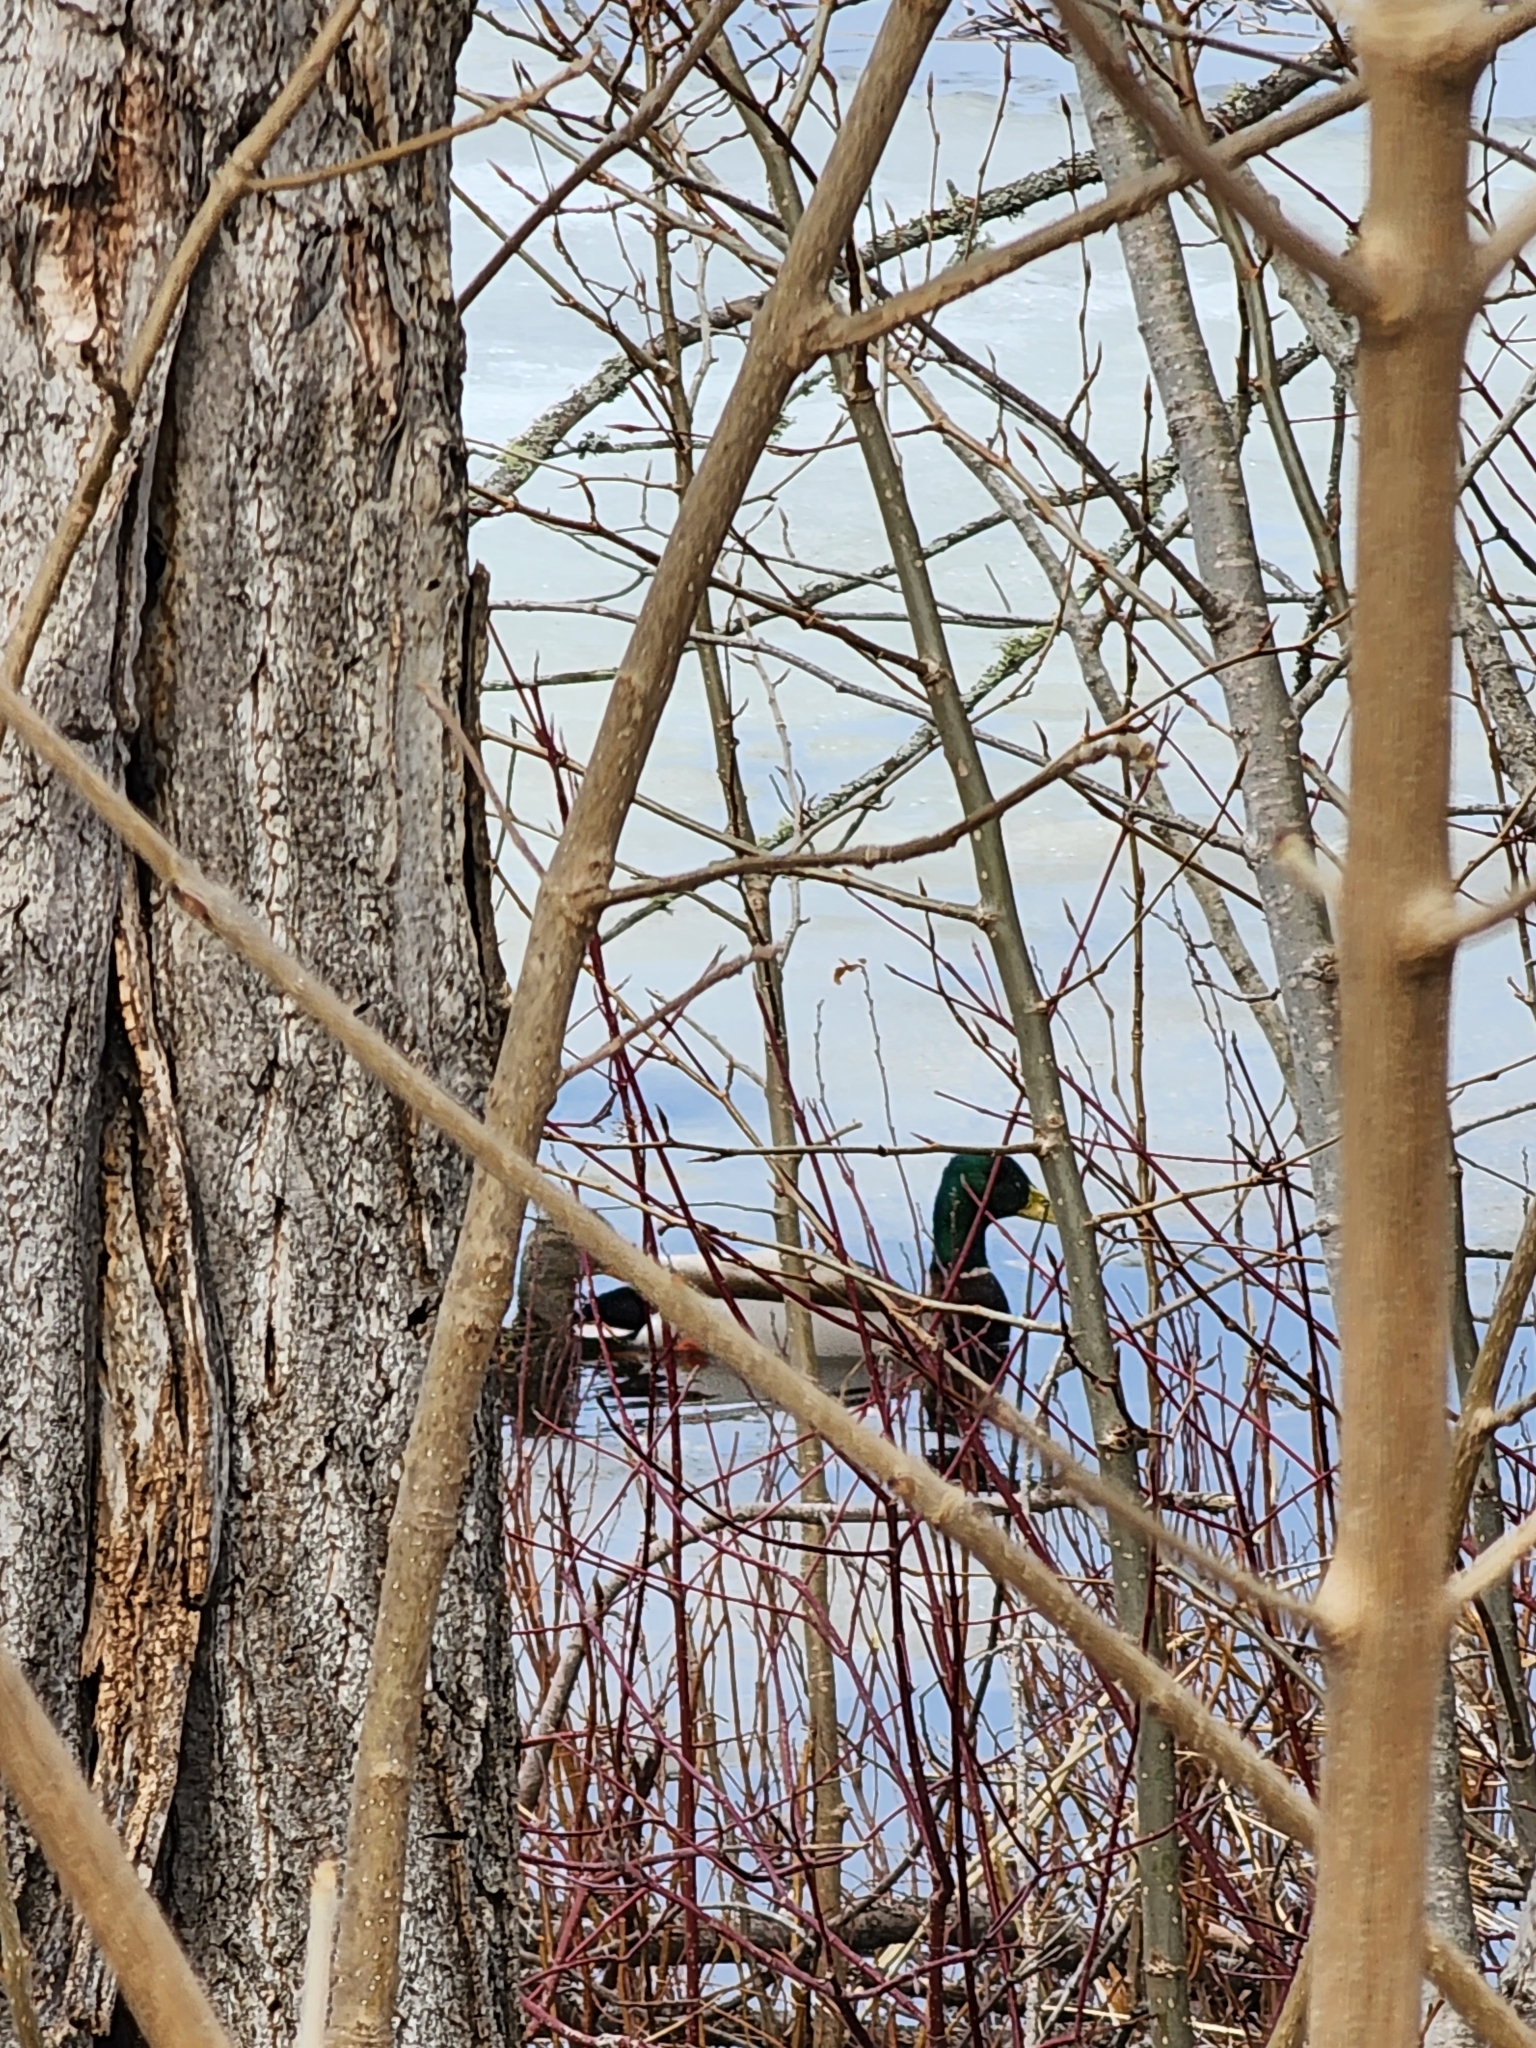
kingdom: Animalia
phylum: Chordata
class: Aves
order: Anseriformes
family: Anatidae
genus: Anas
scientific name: Anas platyrhynchos
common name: Mallard
